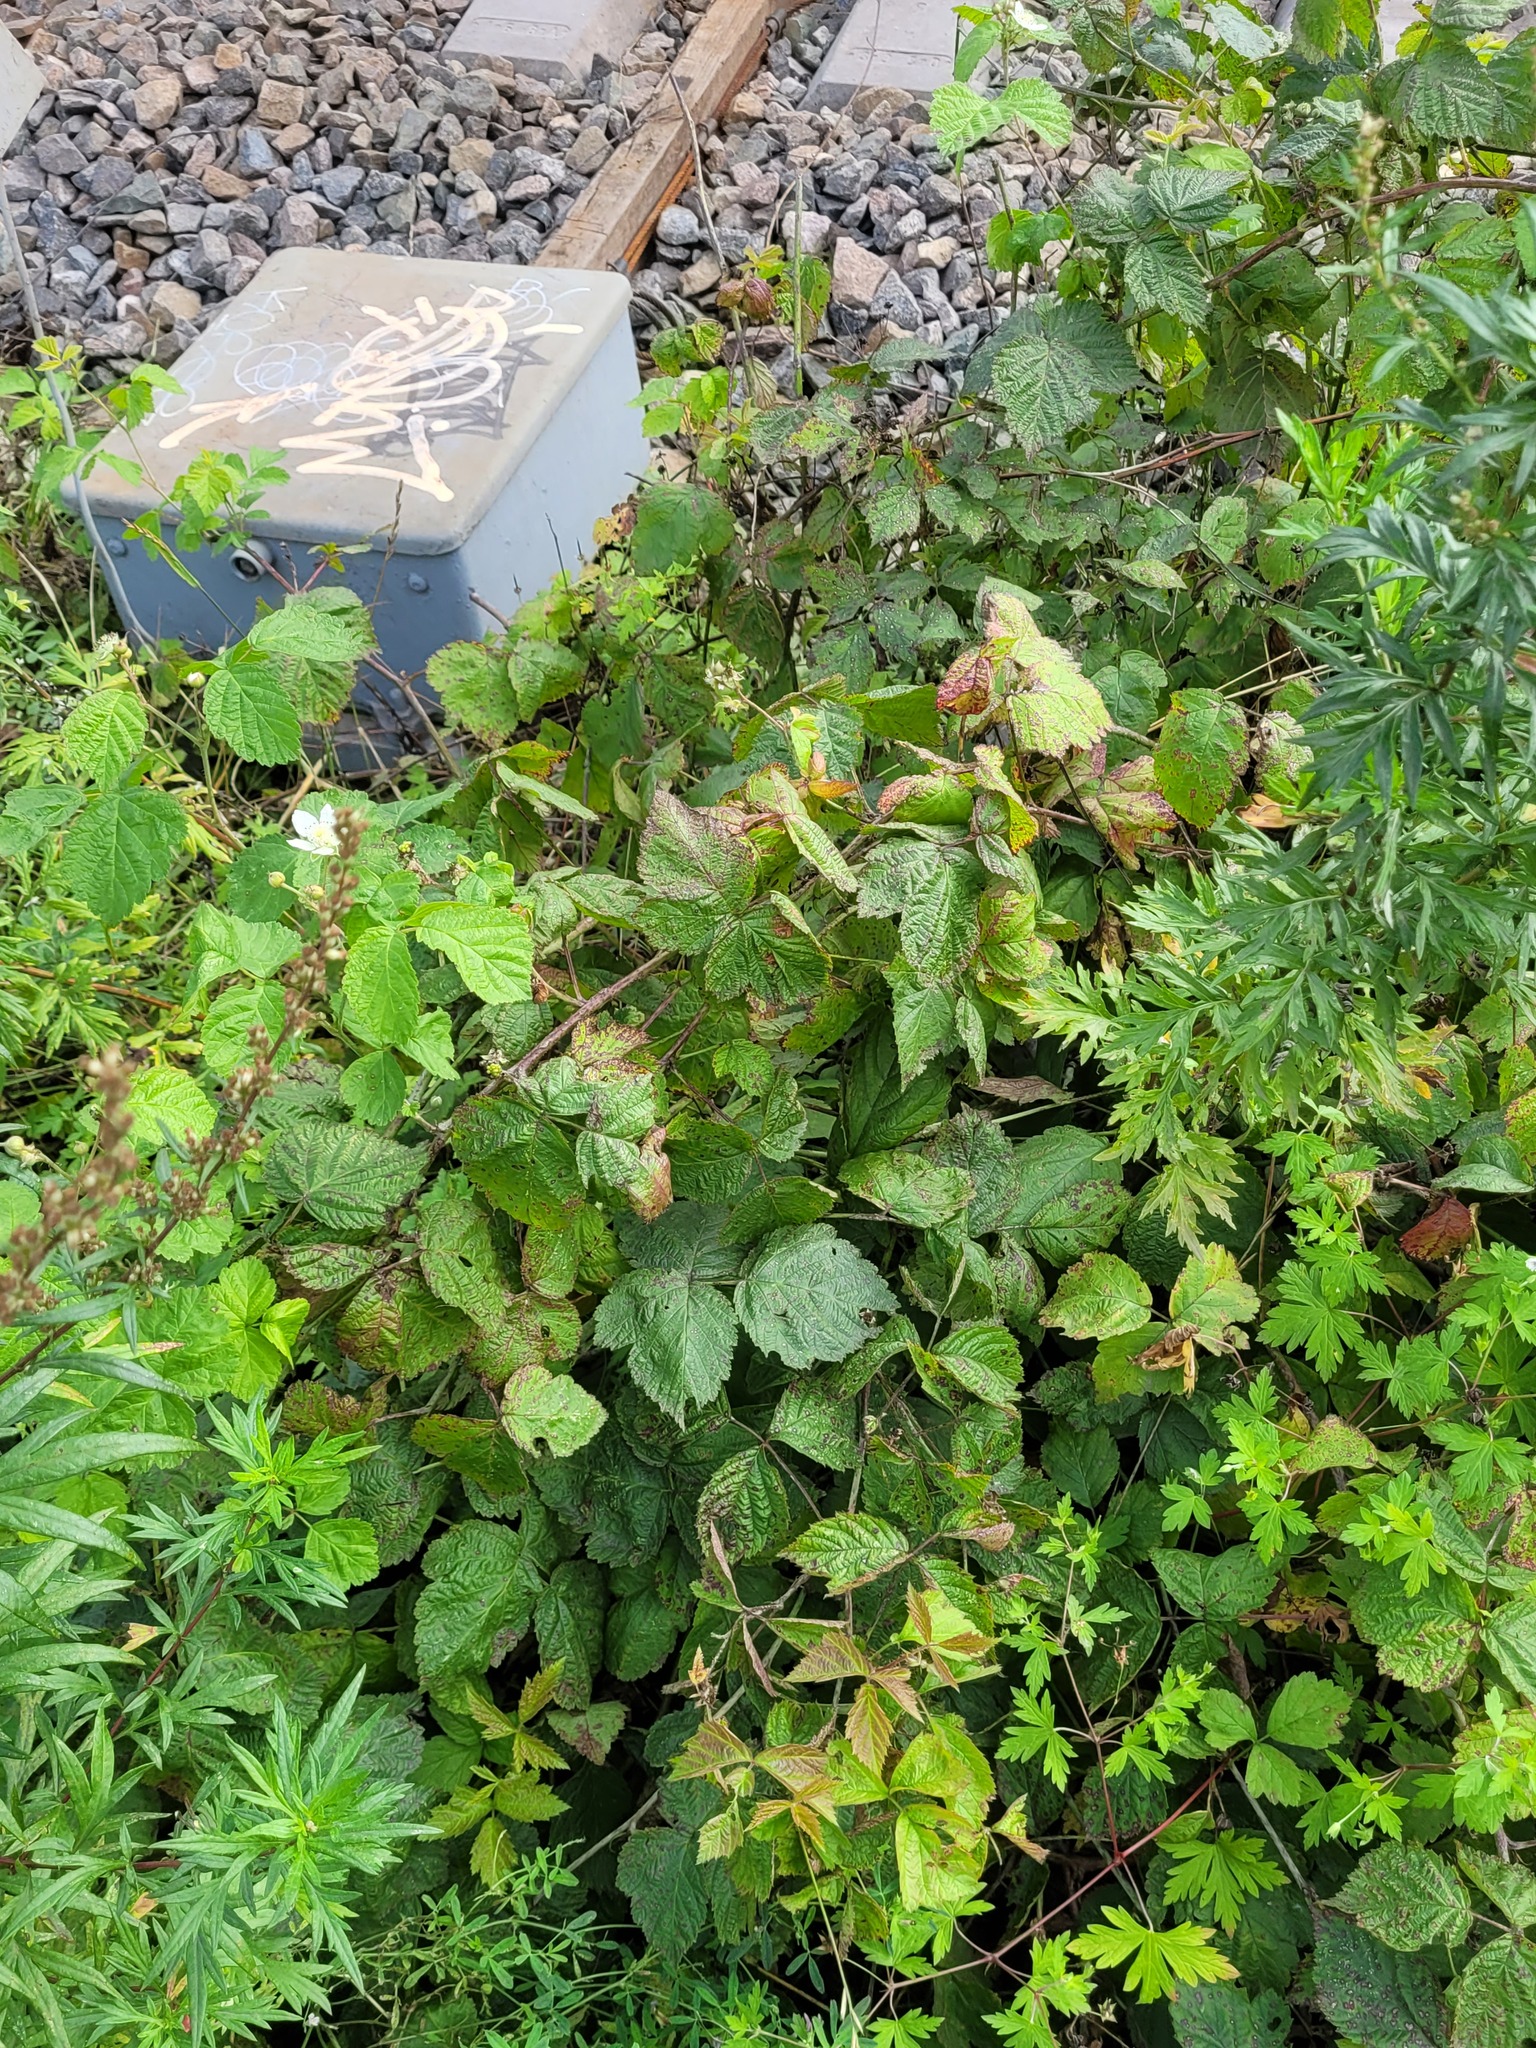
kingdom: Plantae
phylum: Tracheophyta
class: Magnoliopsida
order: Rosales
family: Rosaceae
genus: Rubus
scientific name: Rubus caesius
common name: Dewberry
